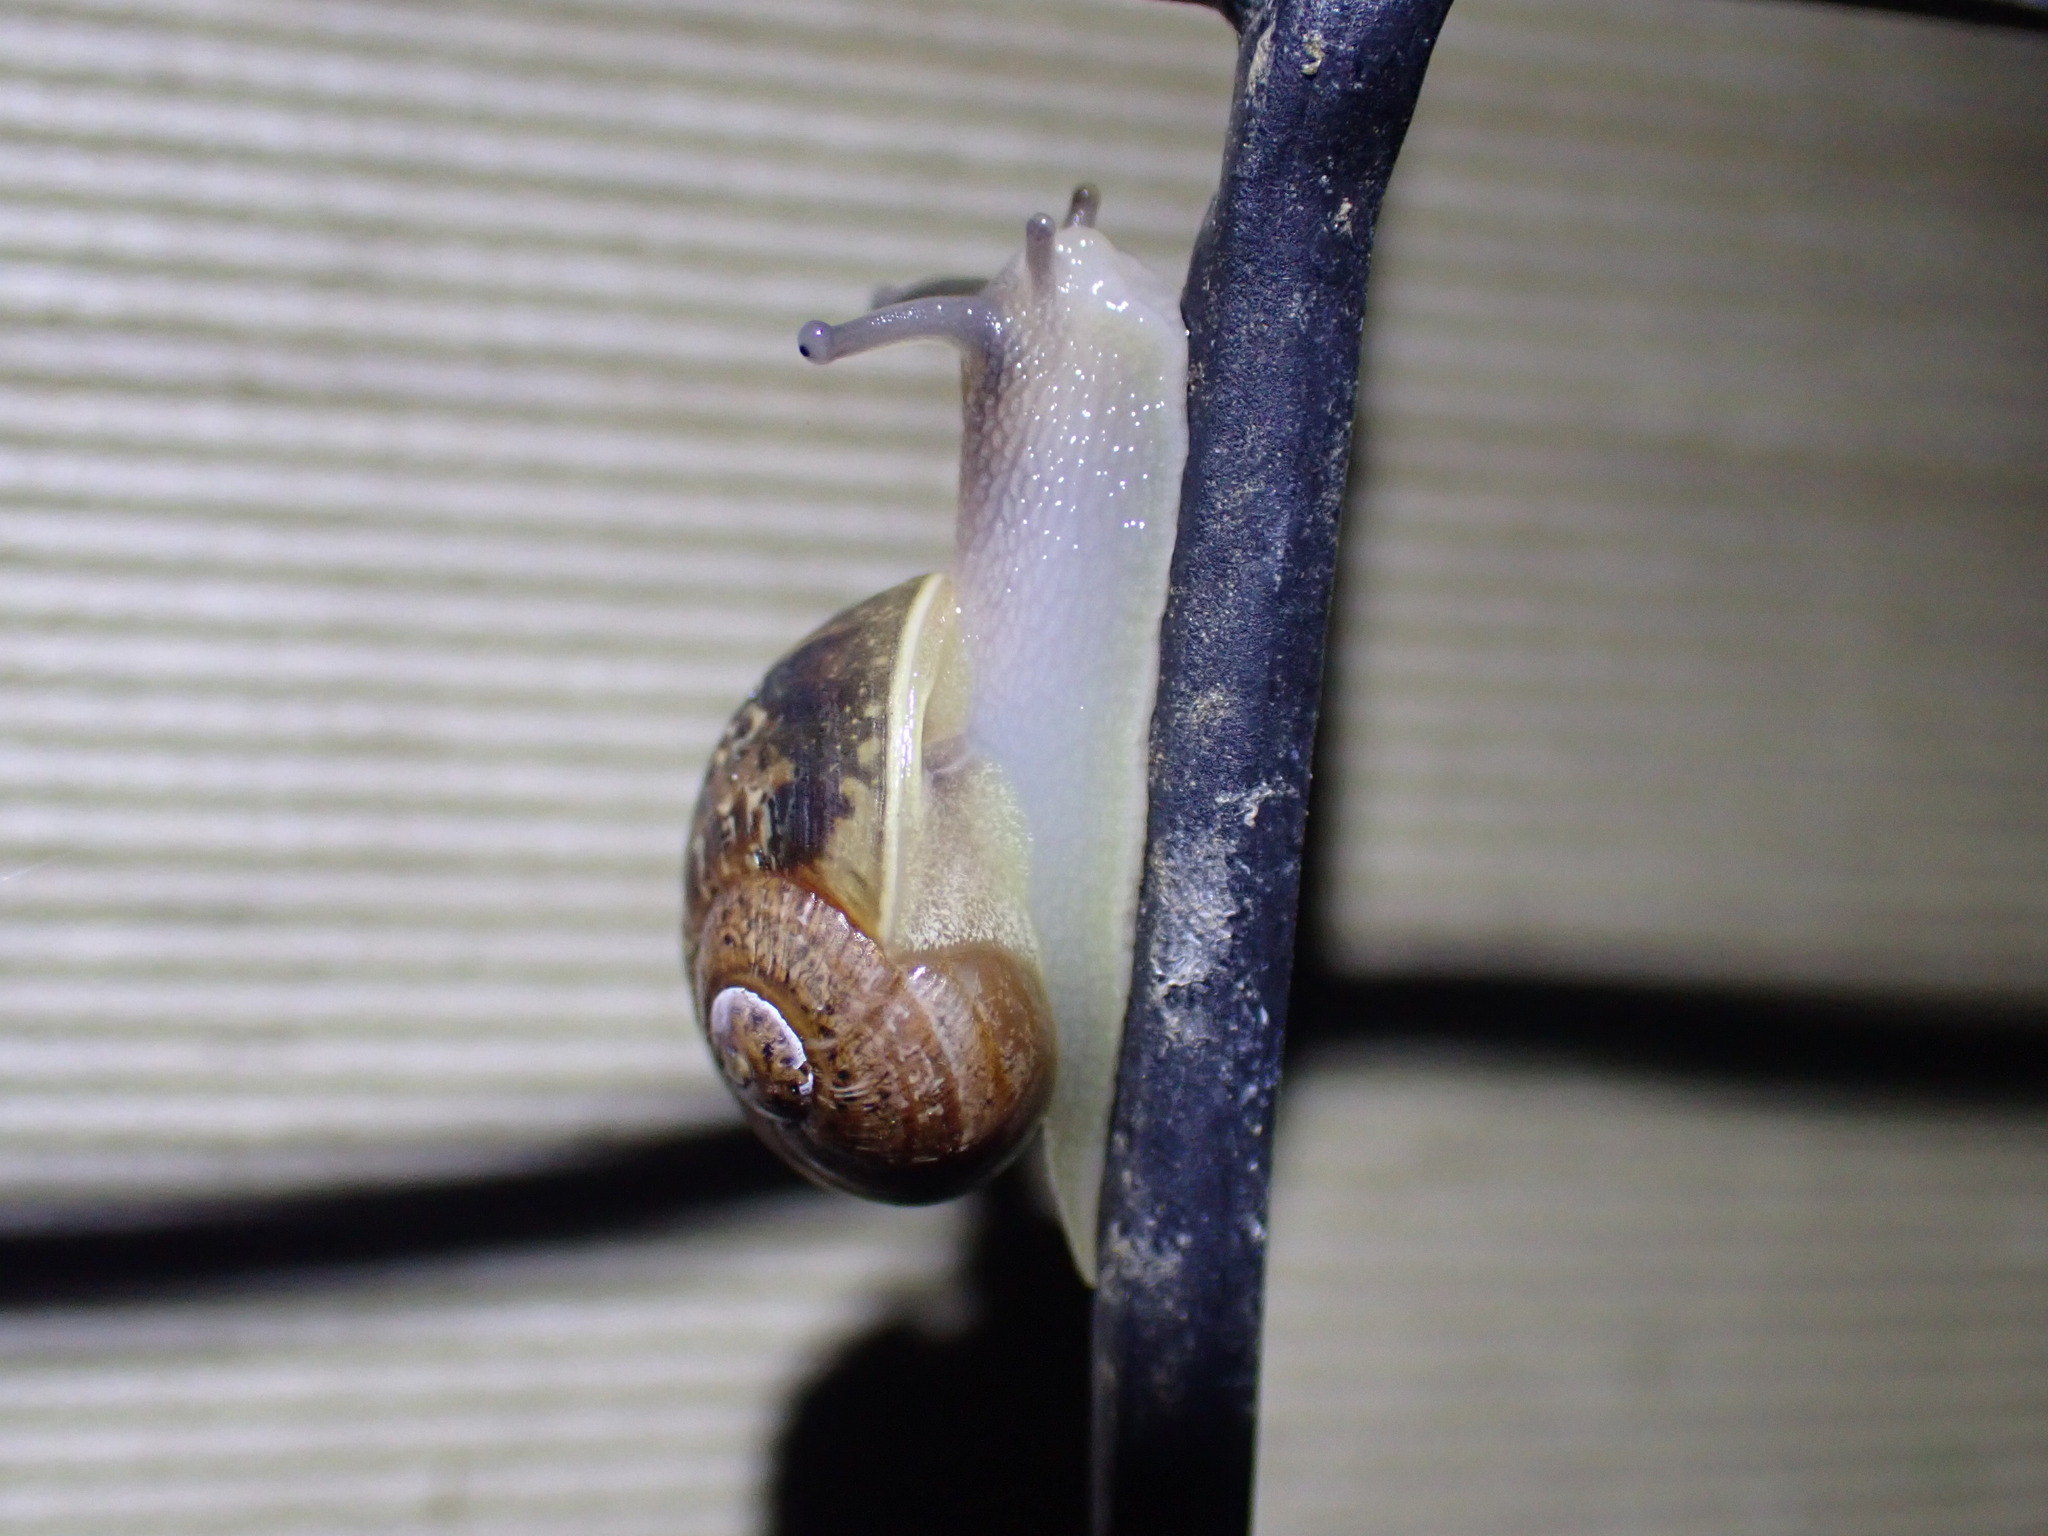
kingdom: Animalia
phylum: Mollusca
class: Gastropoda
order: Stylommatophora
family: Helicidae
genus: Cornu
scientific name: Cornu aspersum
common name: Brown garden snail
